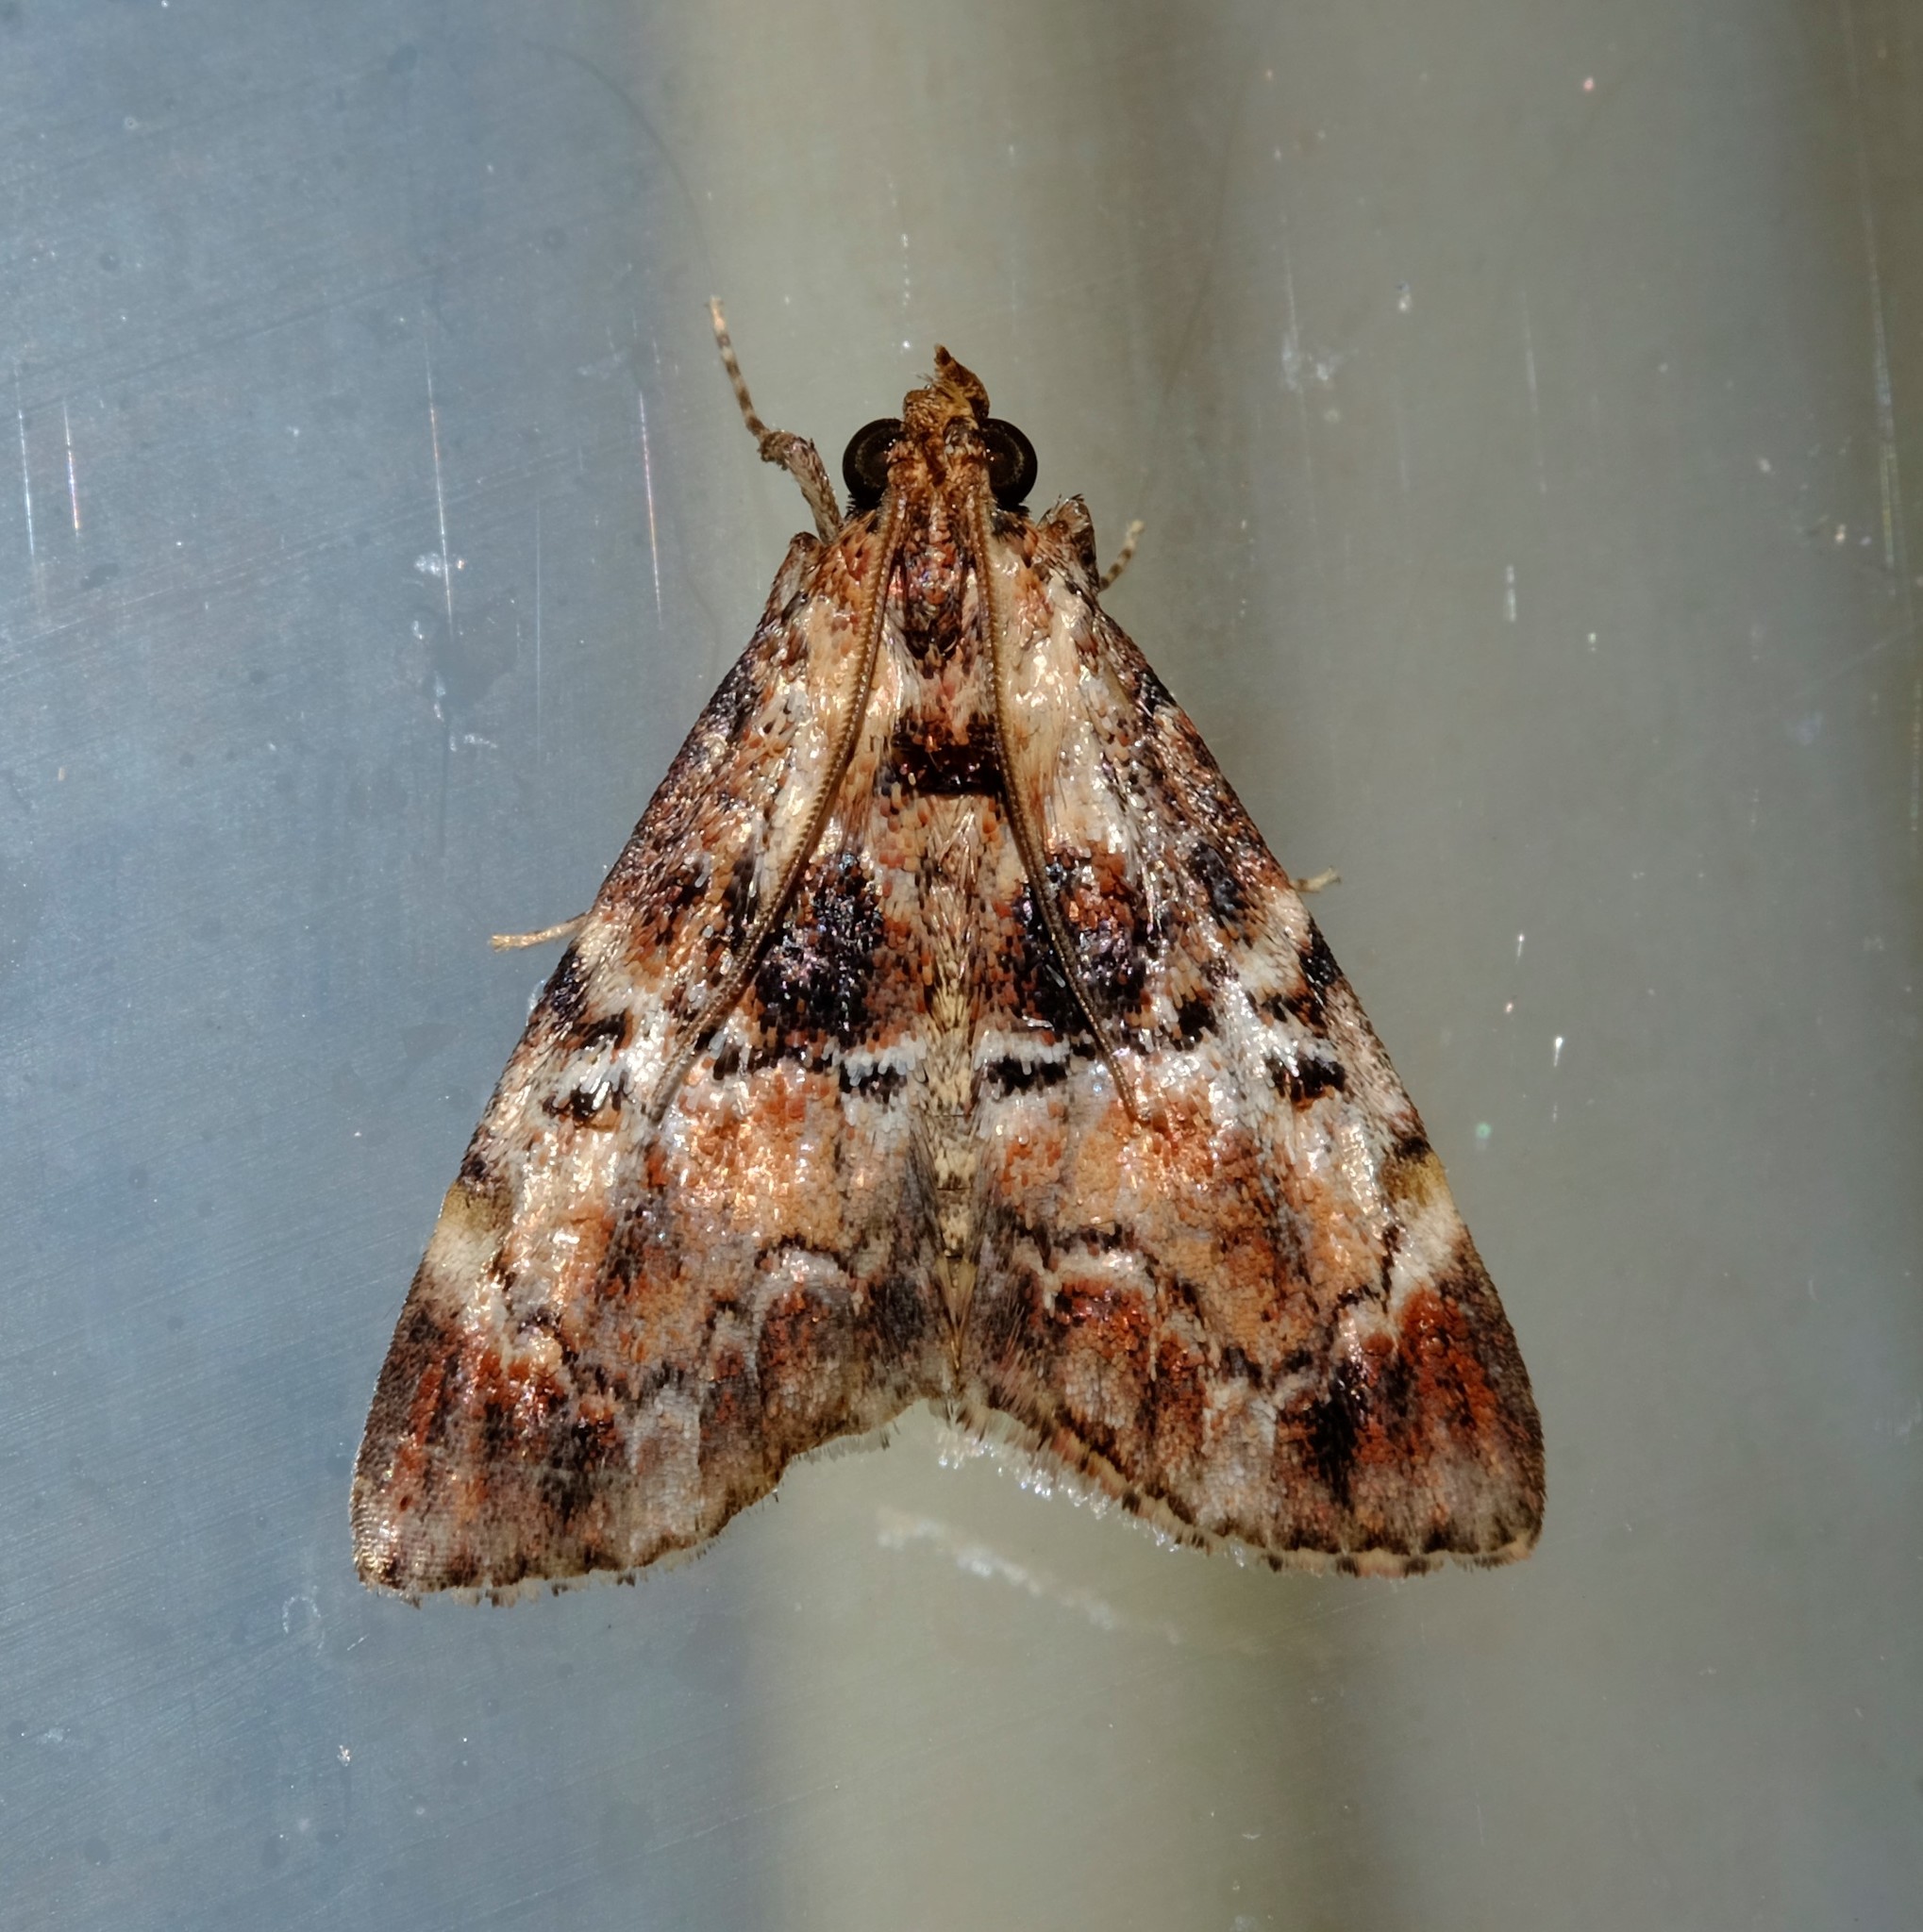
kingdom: Animalia
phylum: Arthropoda
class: Insecta
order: Lepidoptera
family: Pyralidae
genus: Orthaga
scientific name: Orthaga thyrisalis
